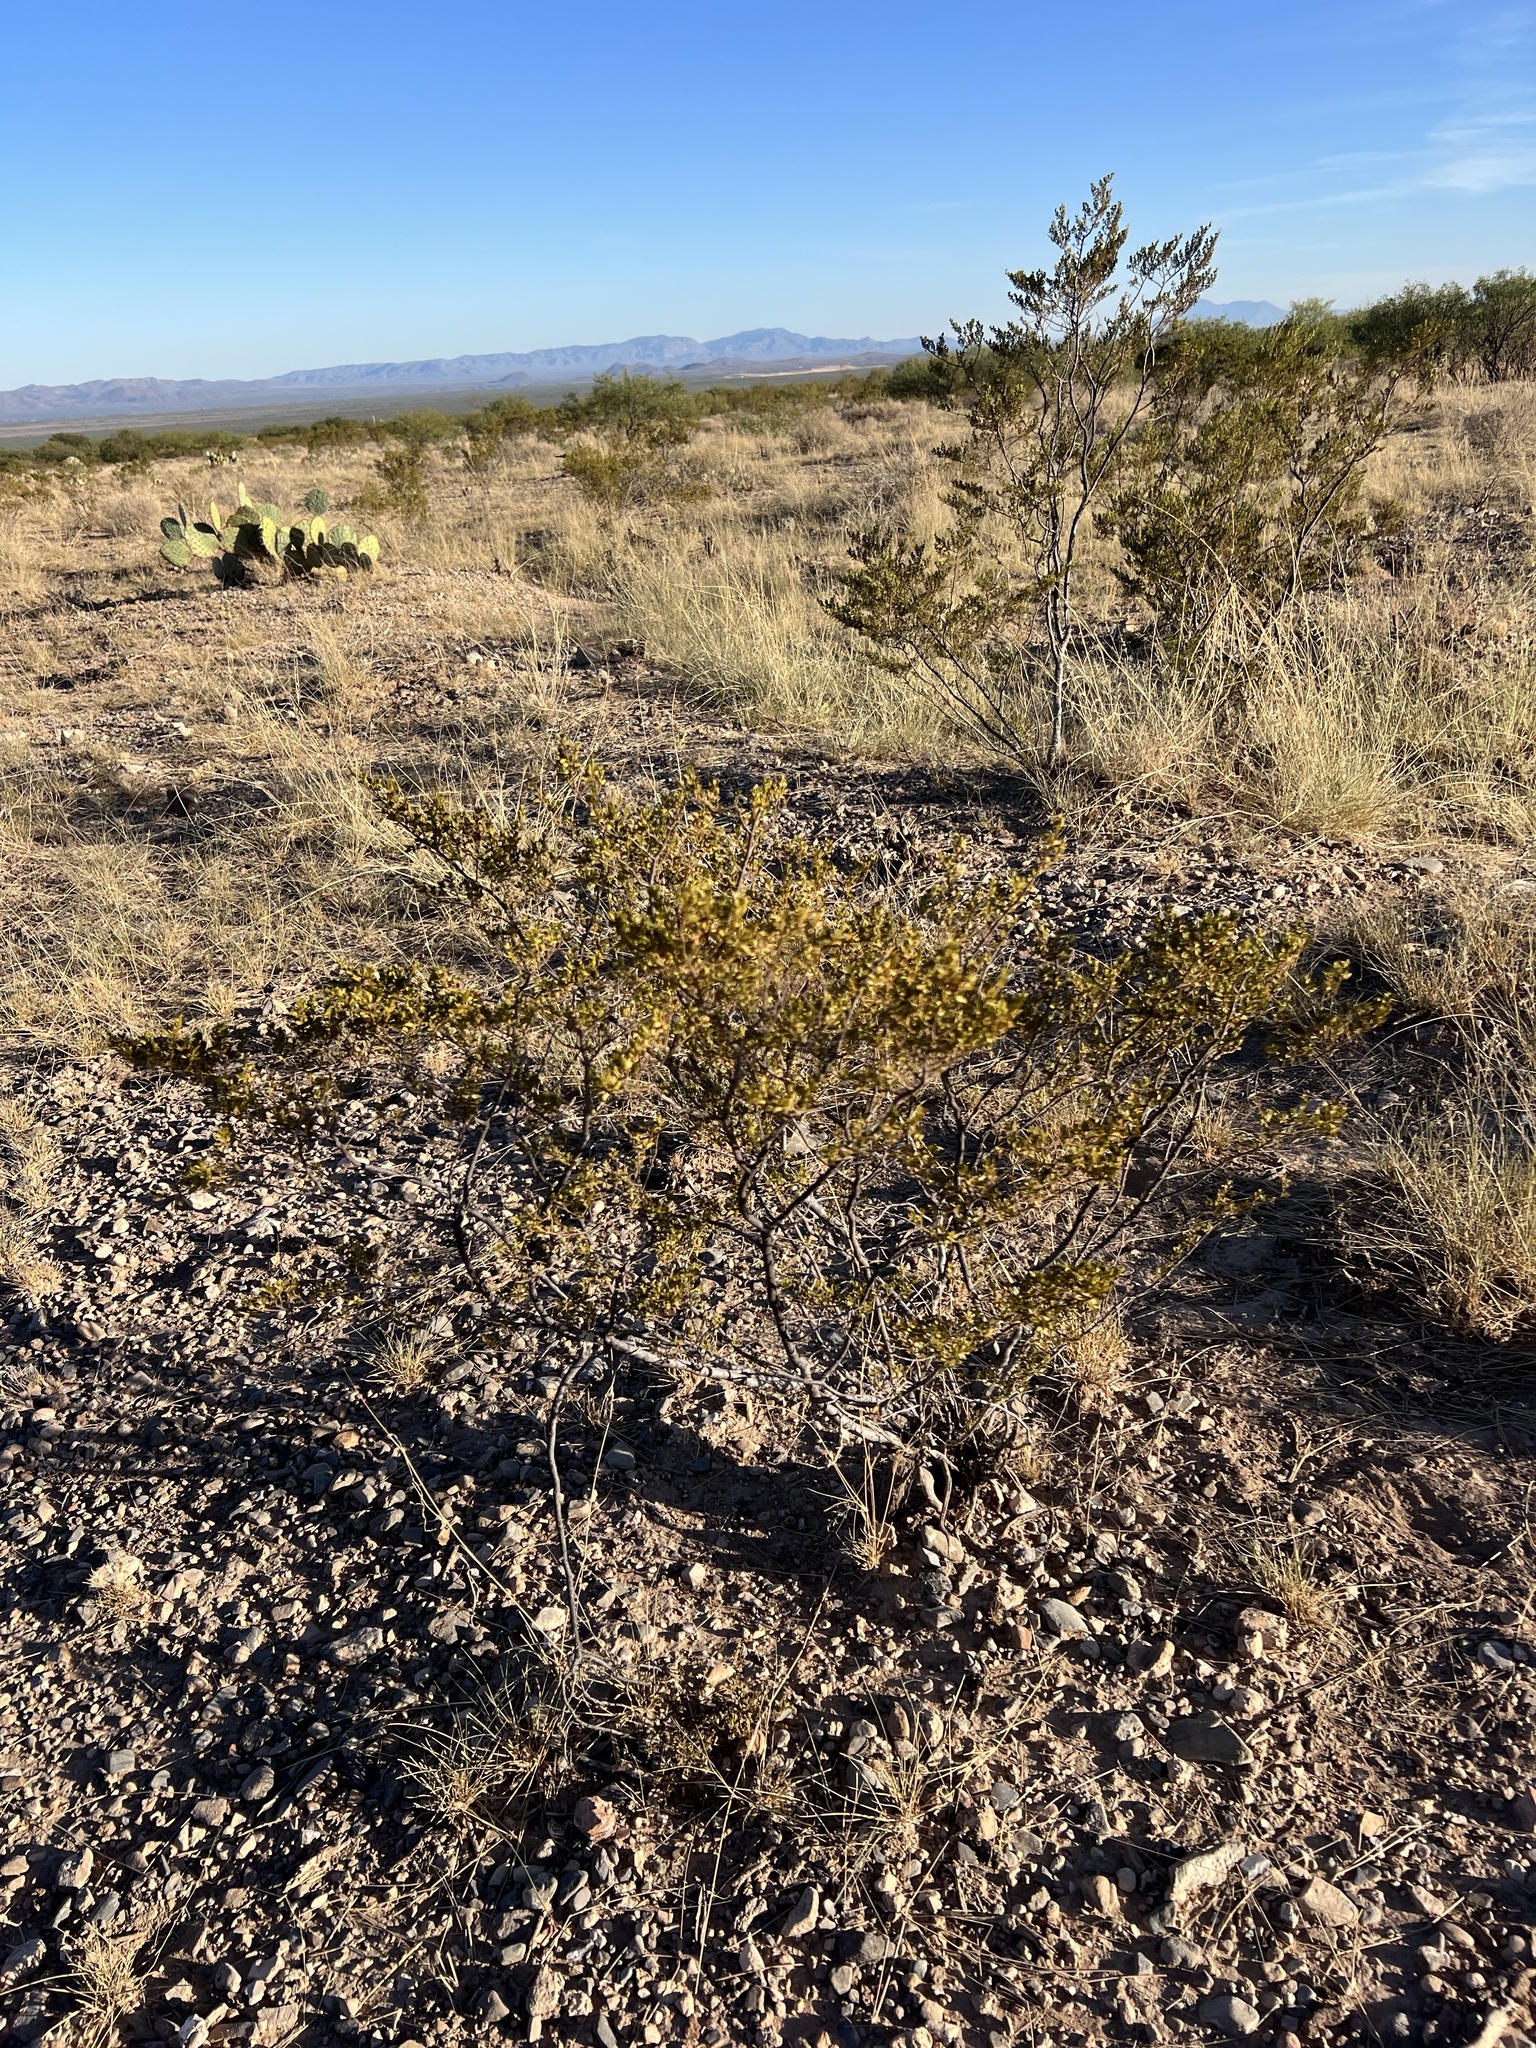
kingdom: Plantae
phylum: Tracheophyta
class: Magnoliopsida
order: Zygophyllales
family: Zygophyllaceae
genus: Larrea
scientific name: Larrea tridentata
